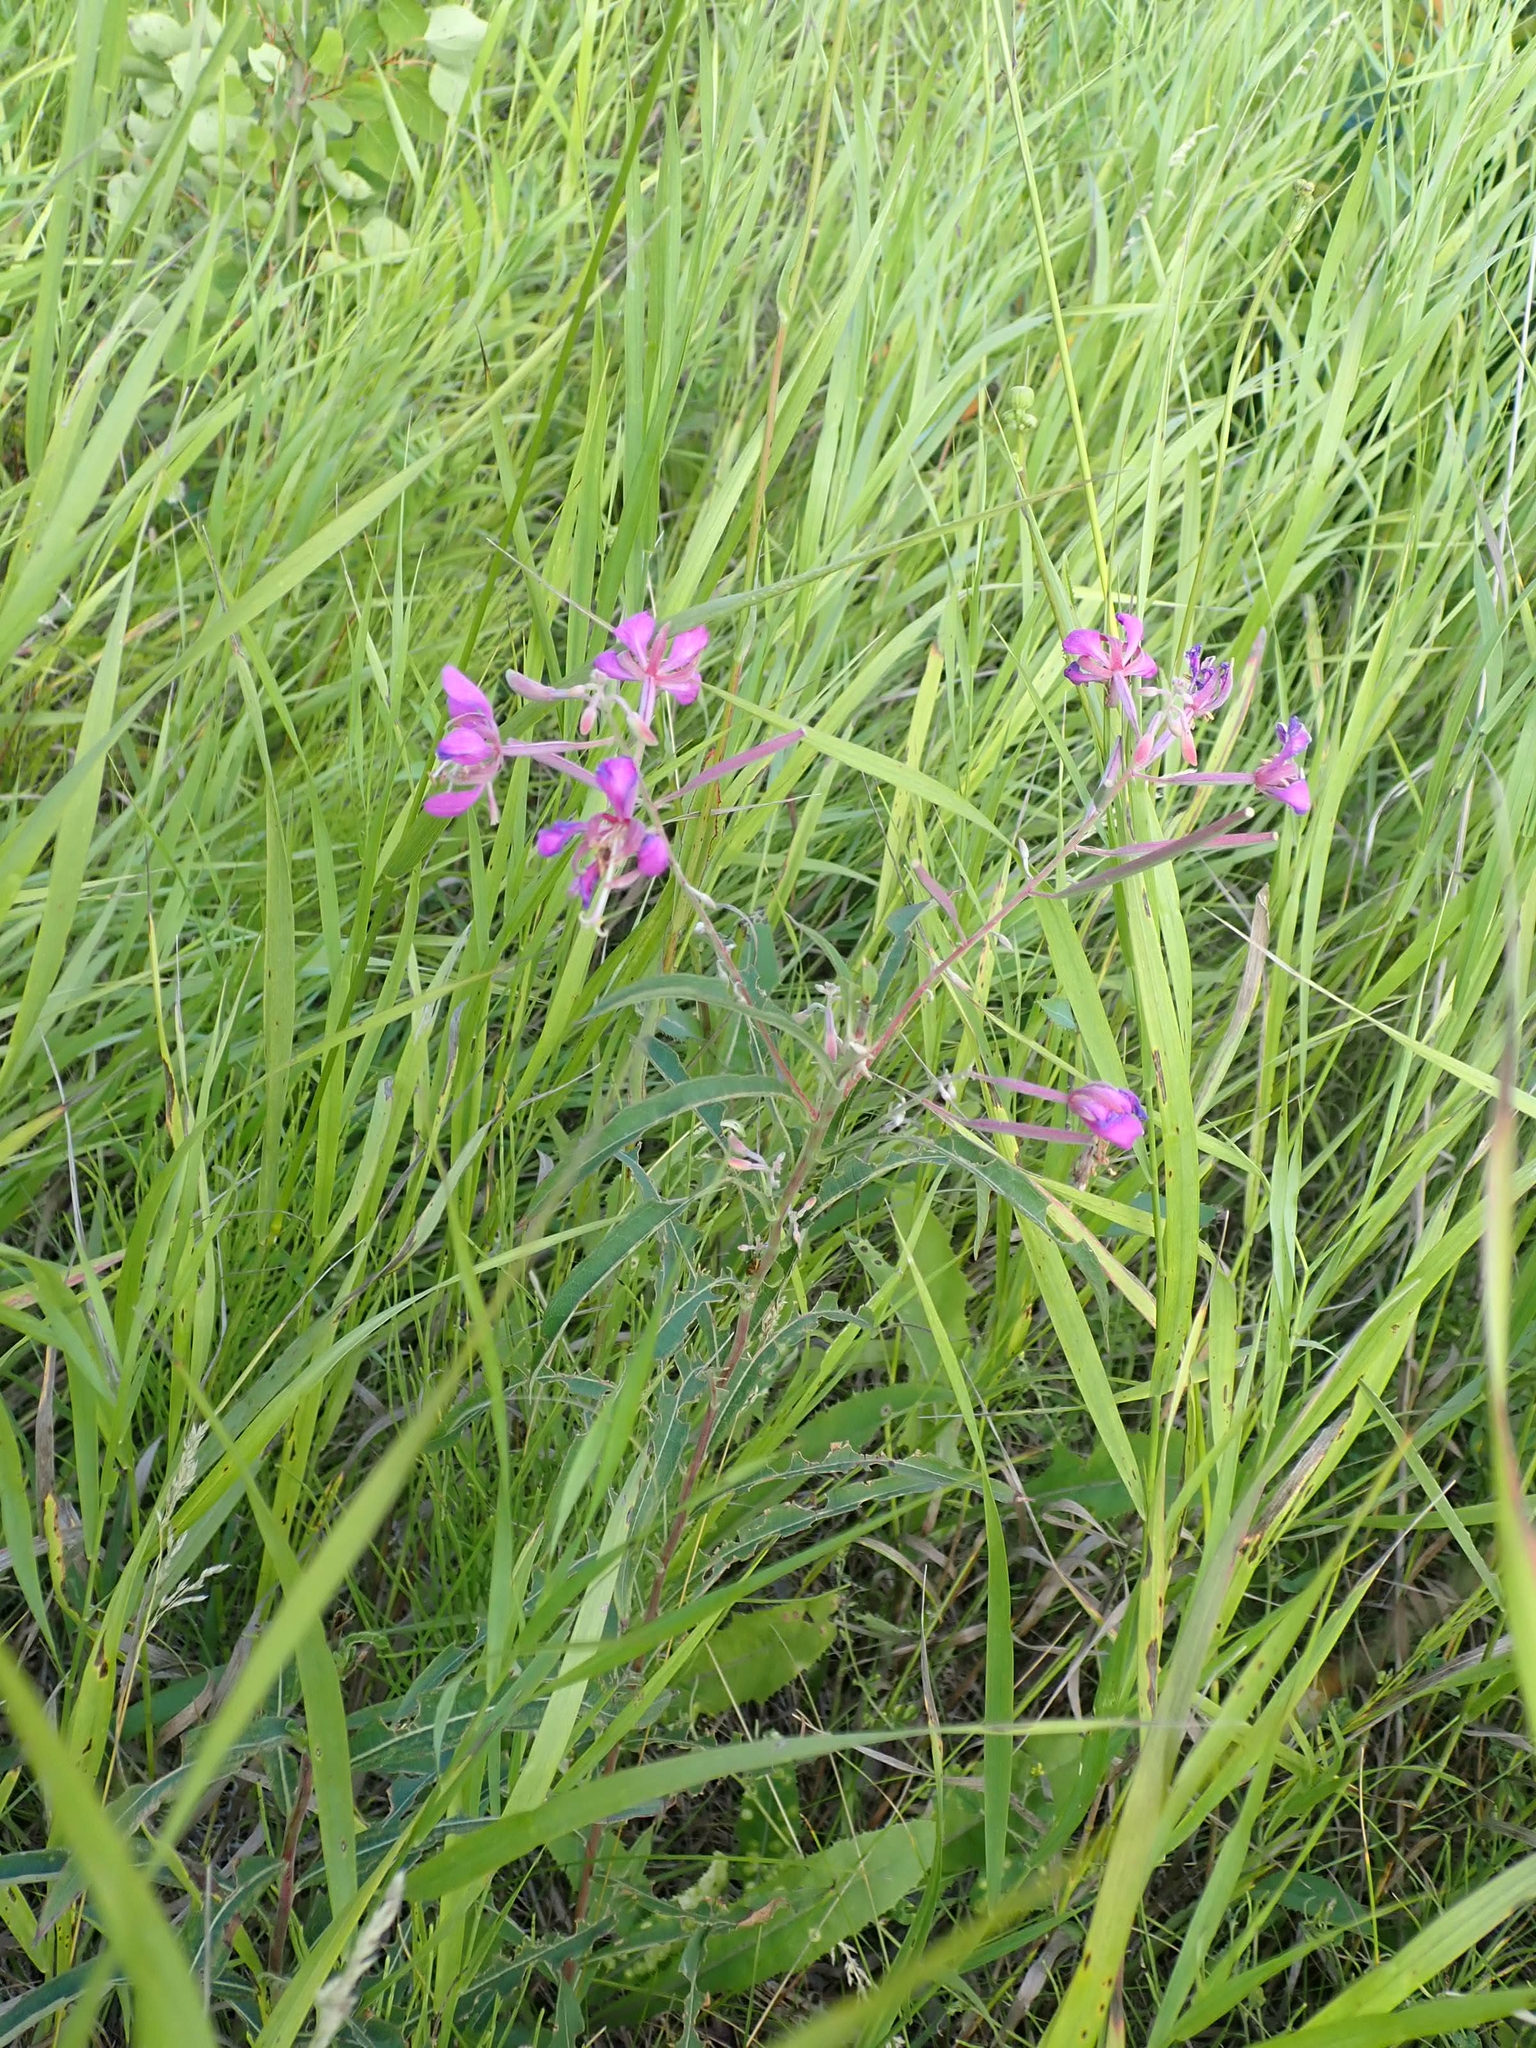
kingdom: Plantae
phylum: Tracheophyta
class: Magnoliopsida
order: Myrtales
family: Onagraceae
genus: Chamaenerion
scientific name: Chamaenerion angustifolium
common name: Fireweed
